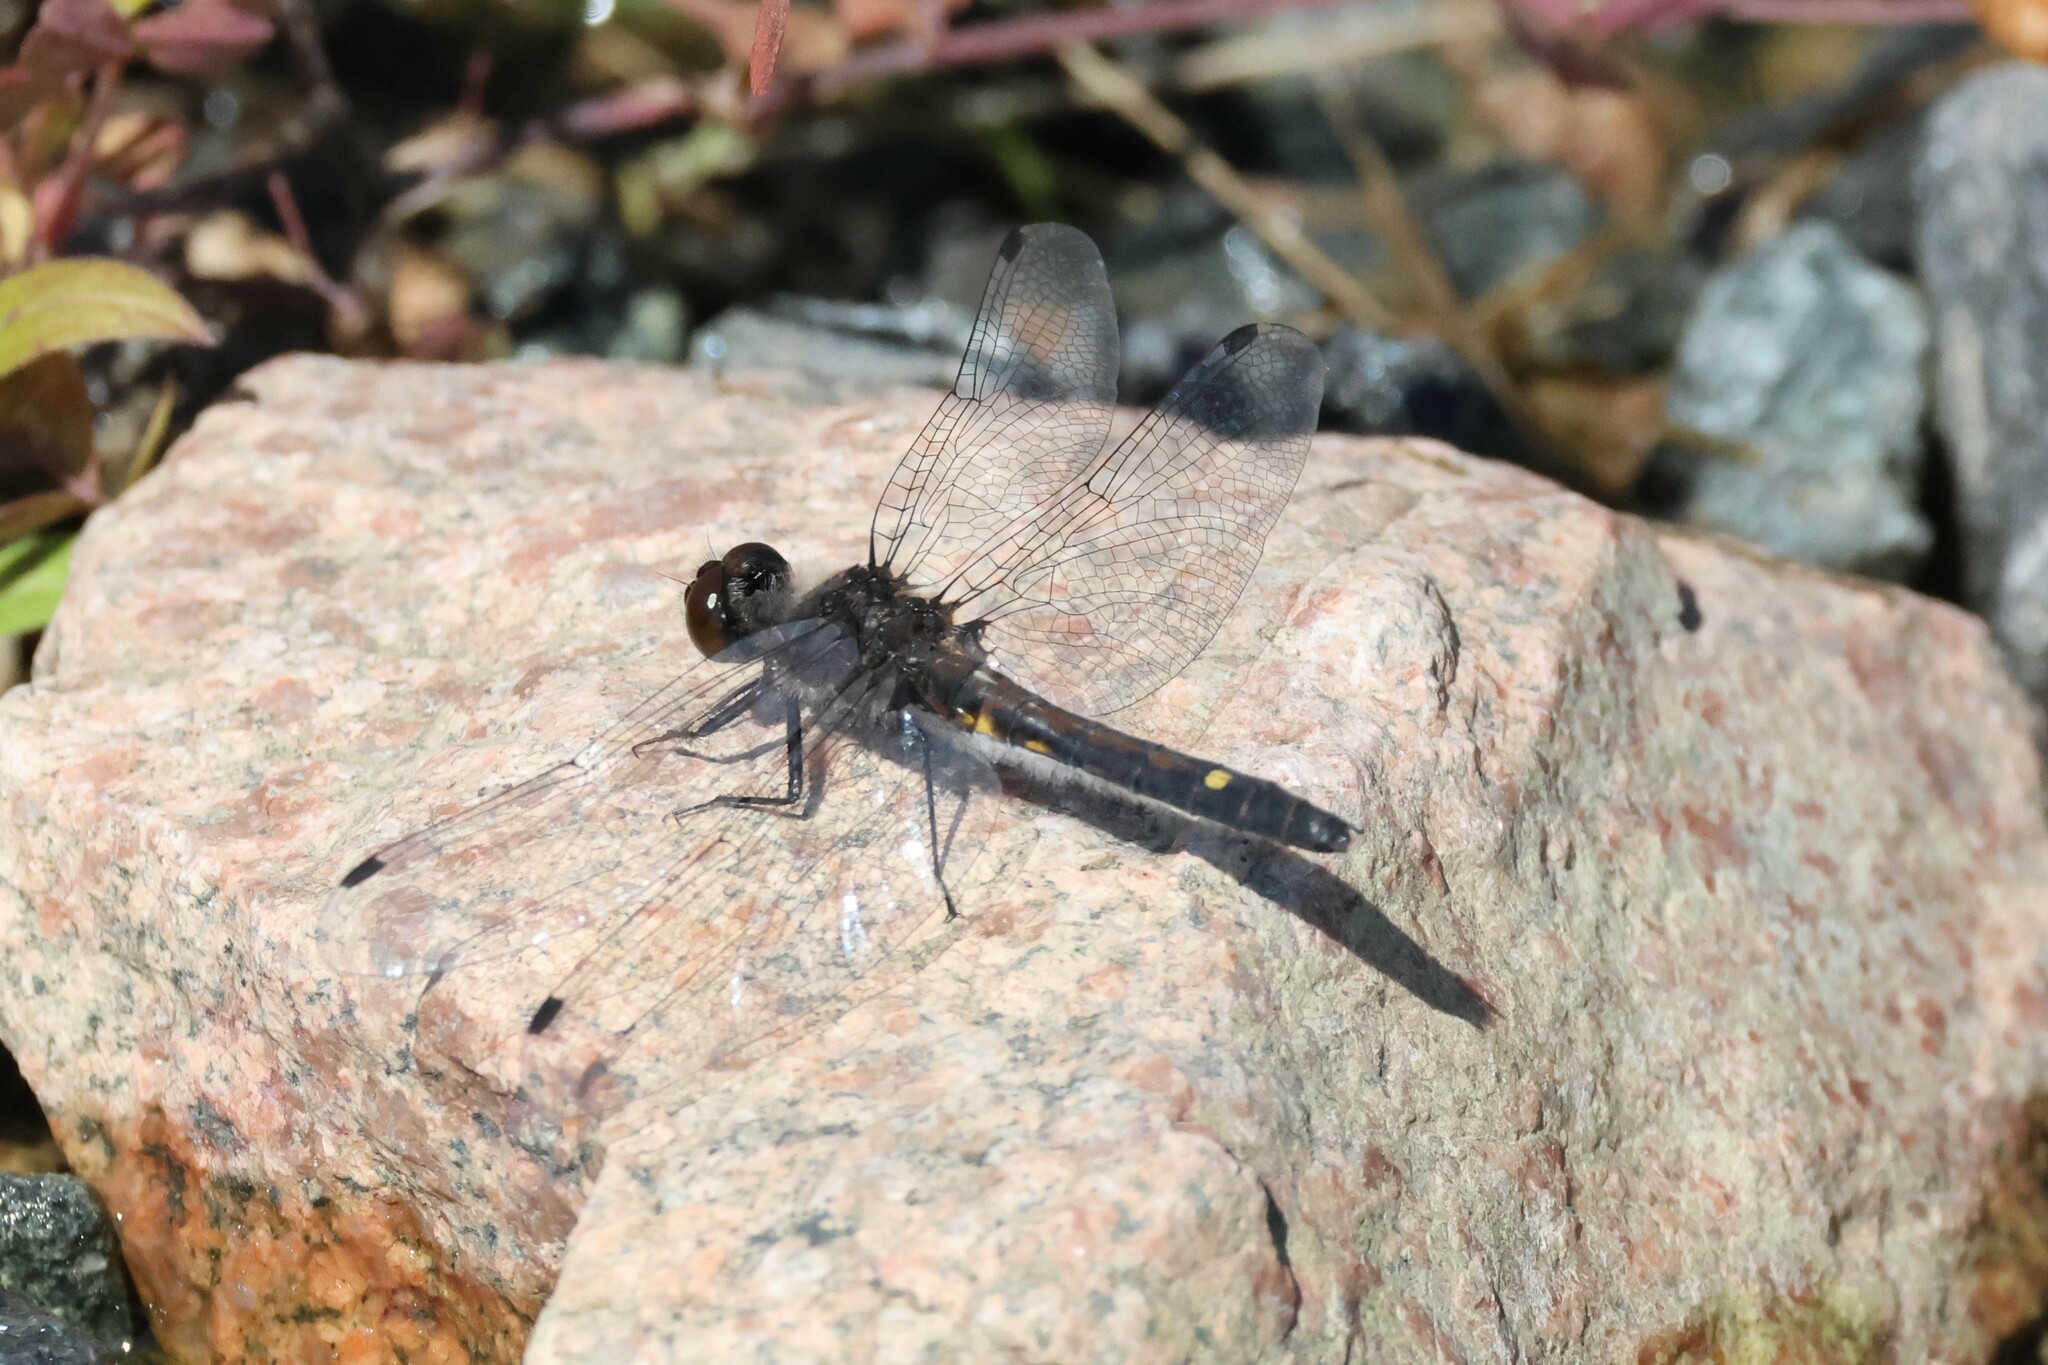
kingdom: Animalia
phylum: Arthropoda
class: Insecta
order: Odonata
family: Libellulidae
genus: Leucorrhinia
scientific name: Leucorrhinia intacta
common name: Dot-tailed whiteface
